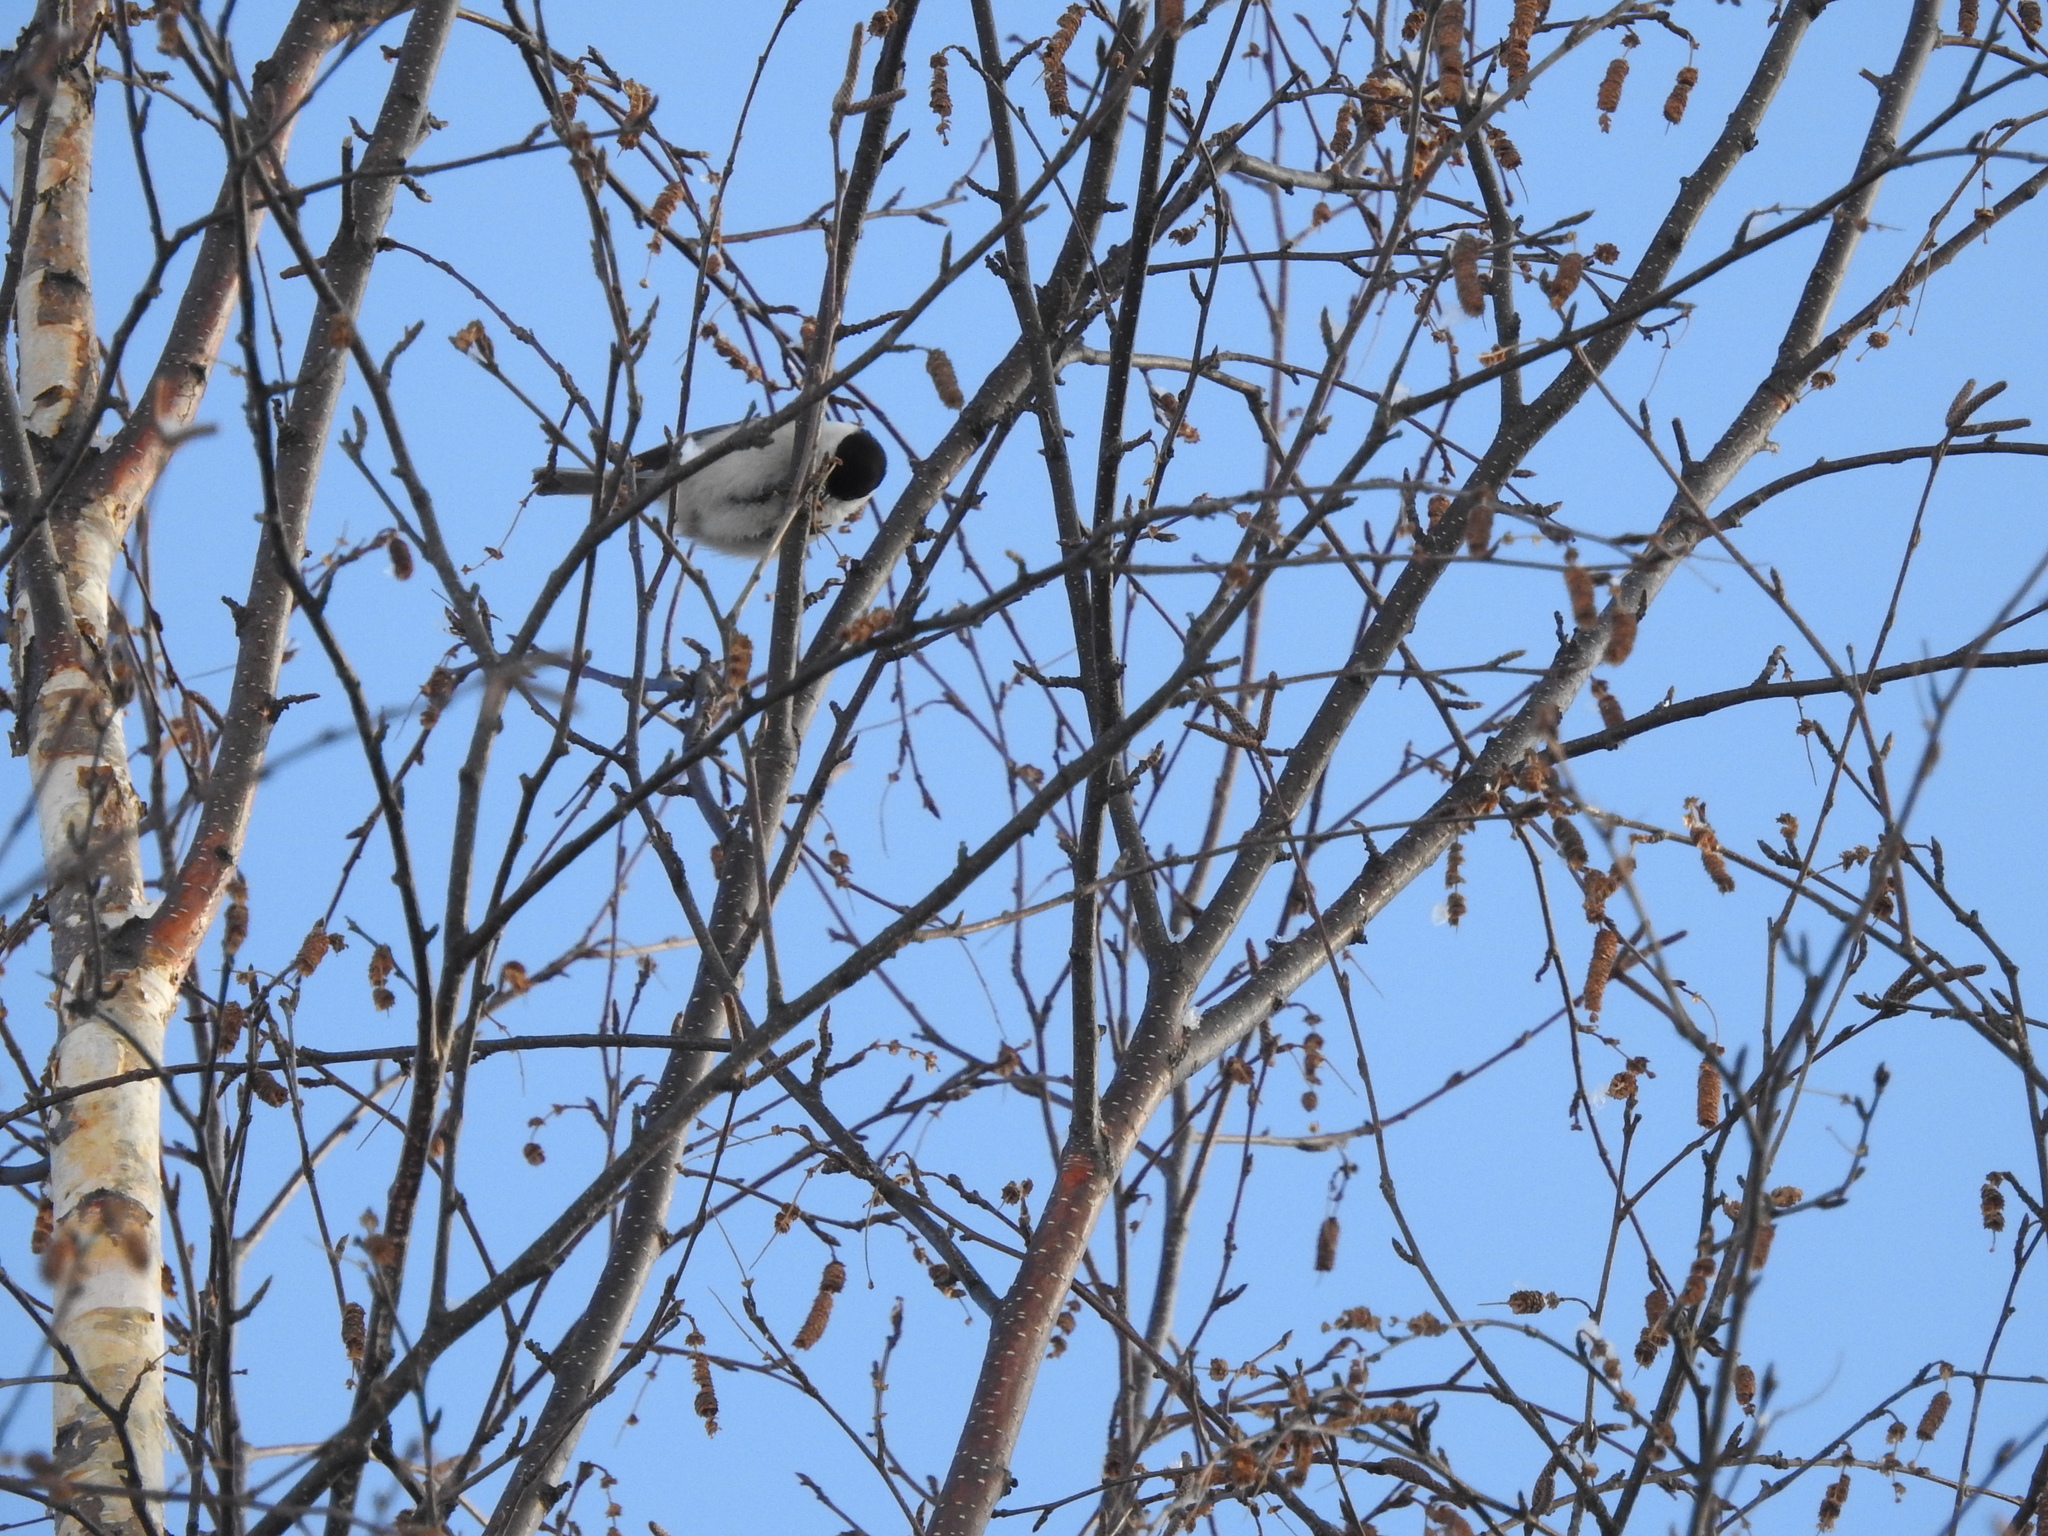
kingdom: Animalia
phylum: Chordata
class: Aves
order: Passeriformes
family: Paridae
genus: Poecile
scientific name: Poecile montanus
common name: Willow tit
